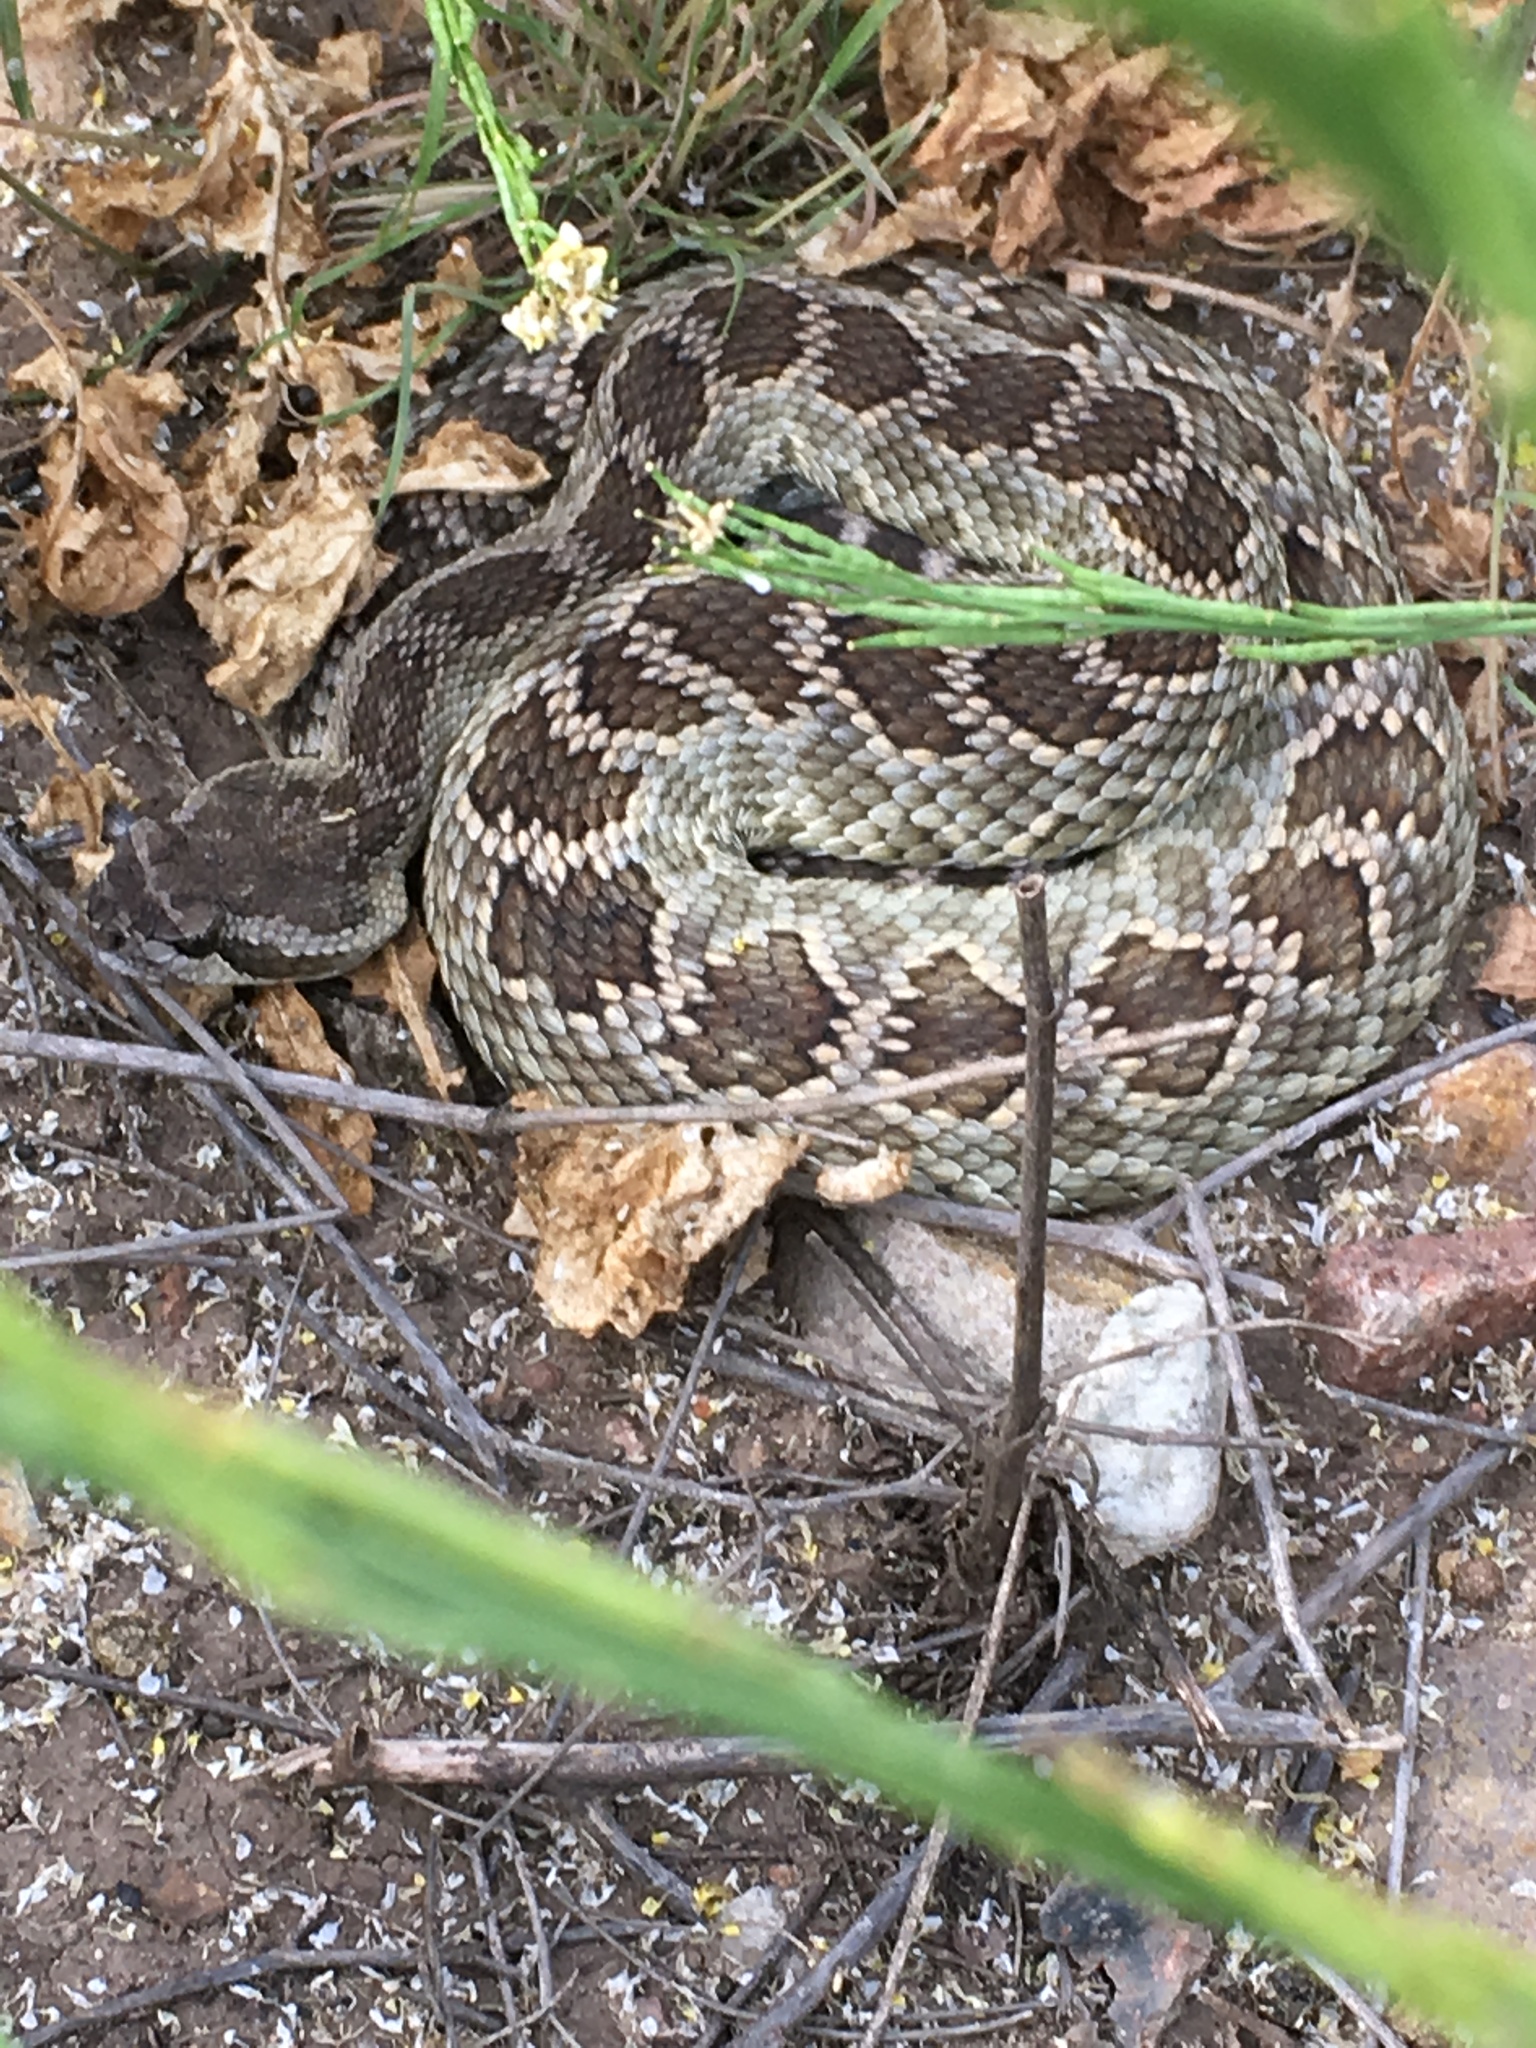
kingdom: Animalia
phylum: Chordata
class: Squamata
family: Viperidae
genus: Crotalus
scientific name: Crotalus oreganus
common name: Abyssus
